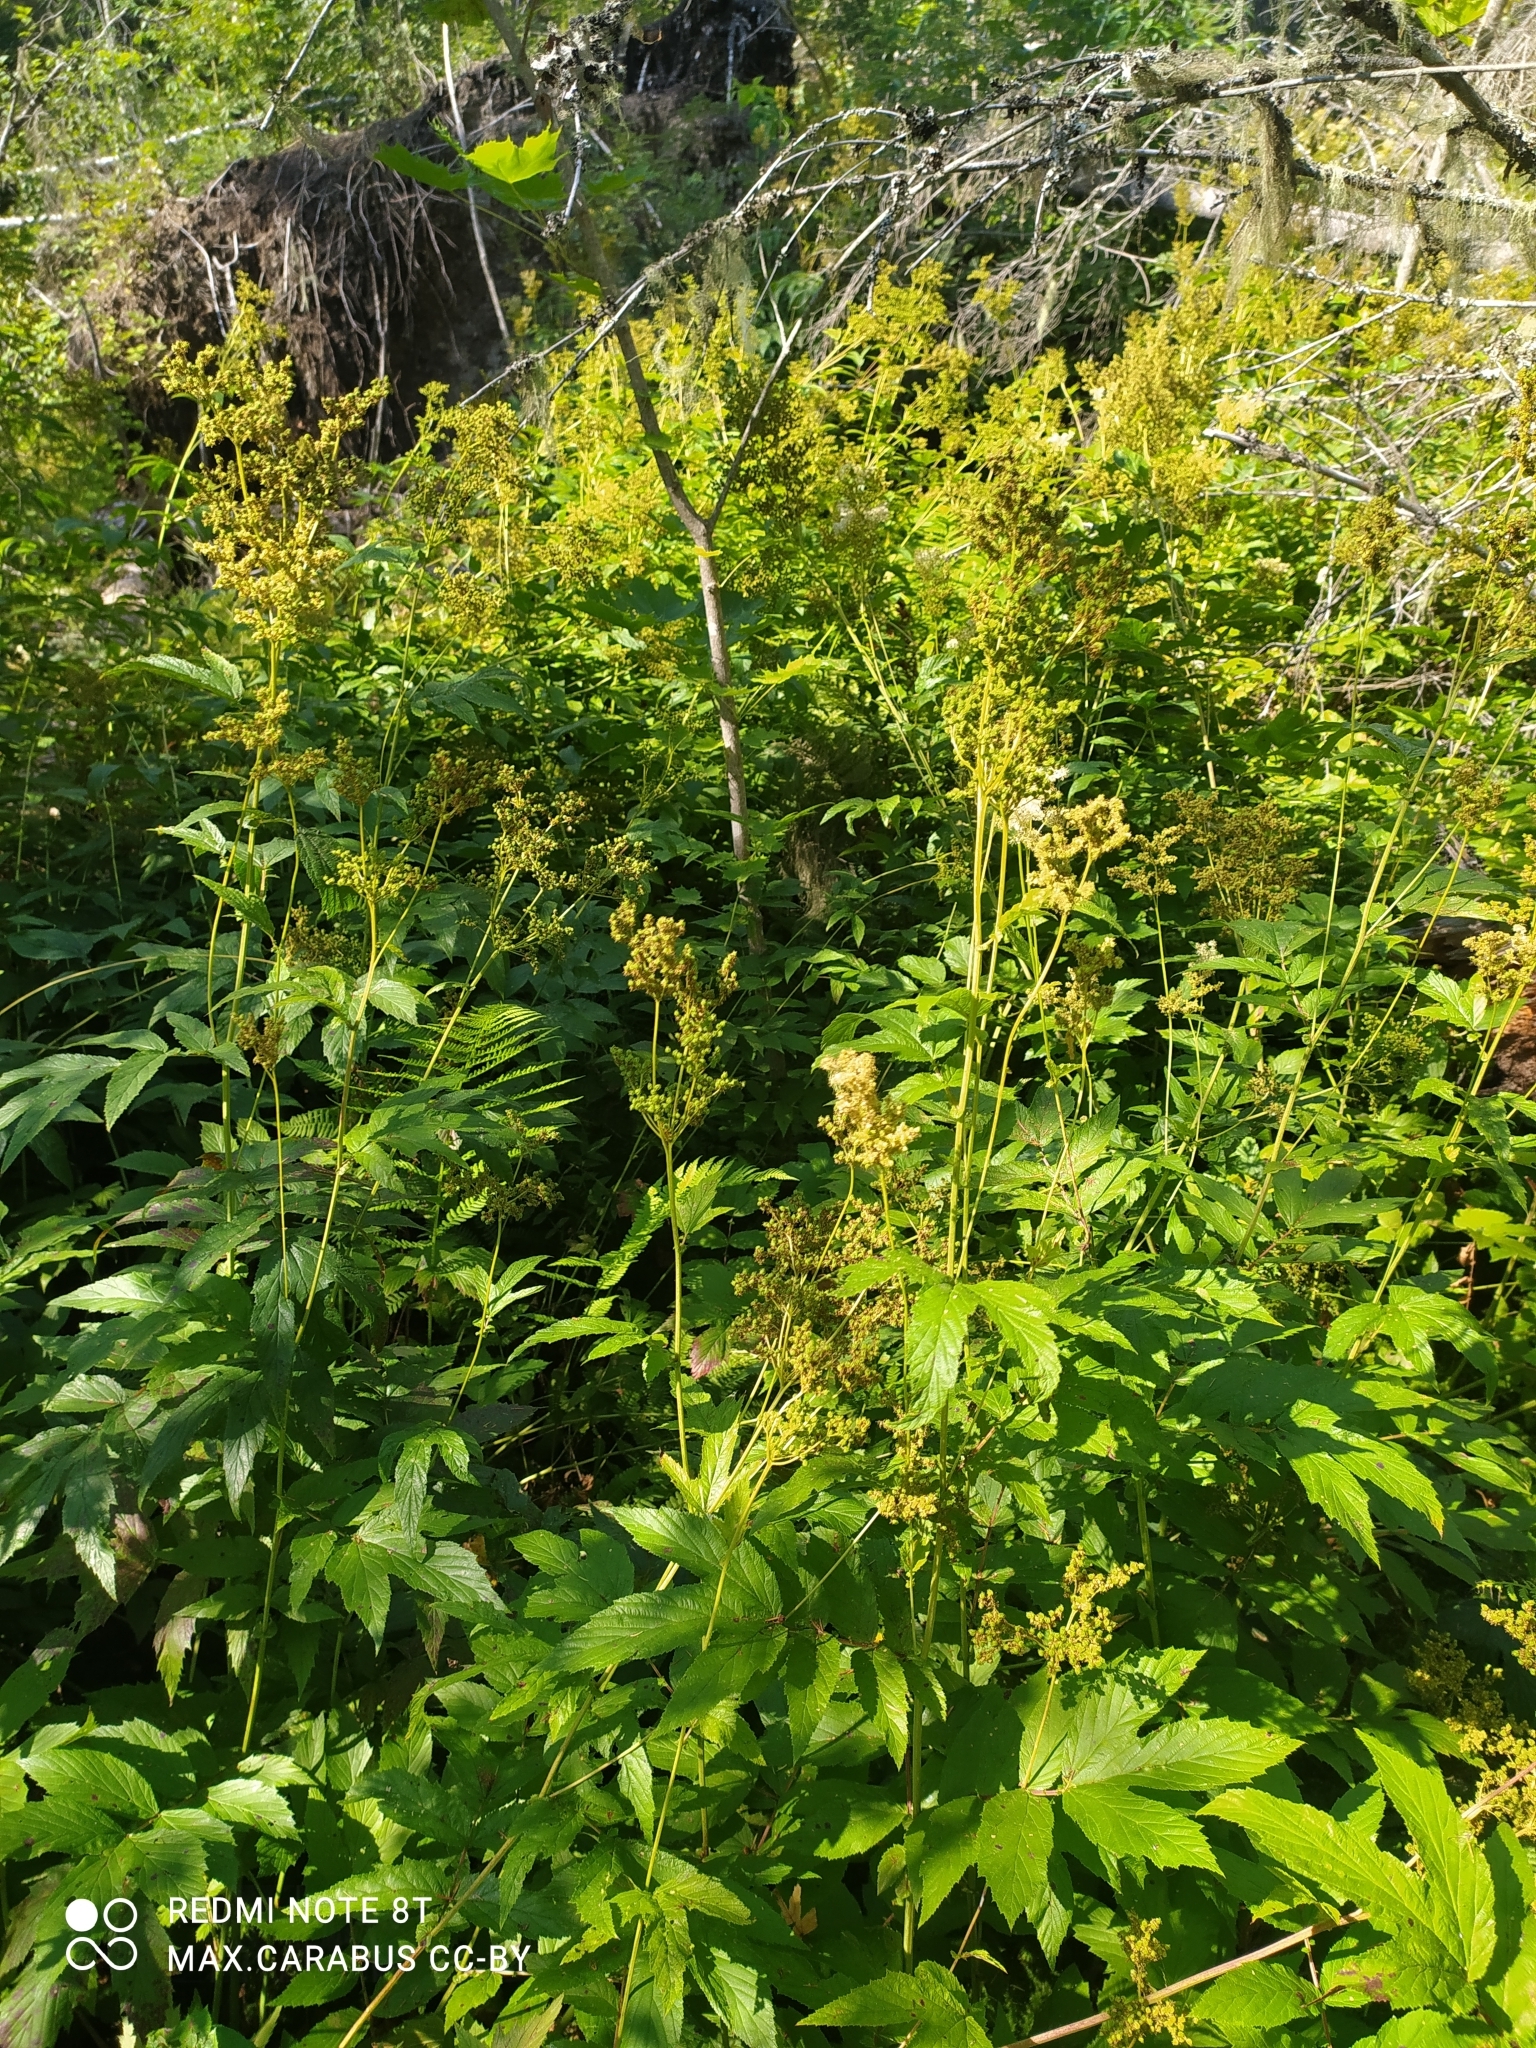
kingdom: Plantae
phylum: Tracheophyta
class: Magnoliopsida
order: Rosales
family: Rosaceae
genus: Filipendula
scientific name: Filipendula ulmaria
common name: Meadowsweet
